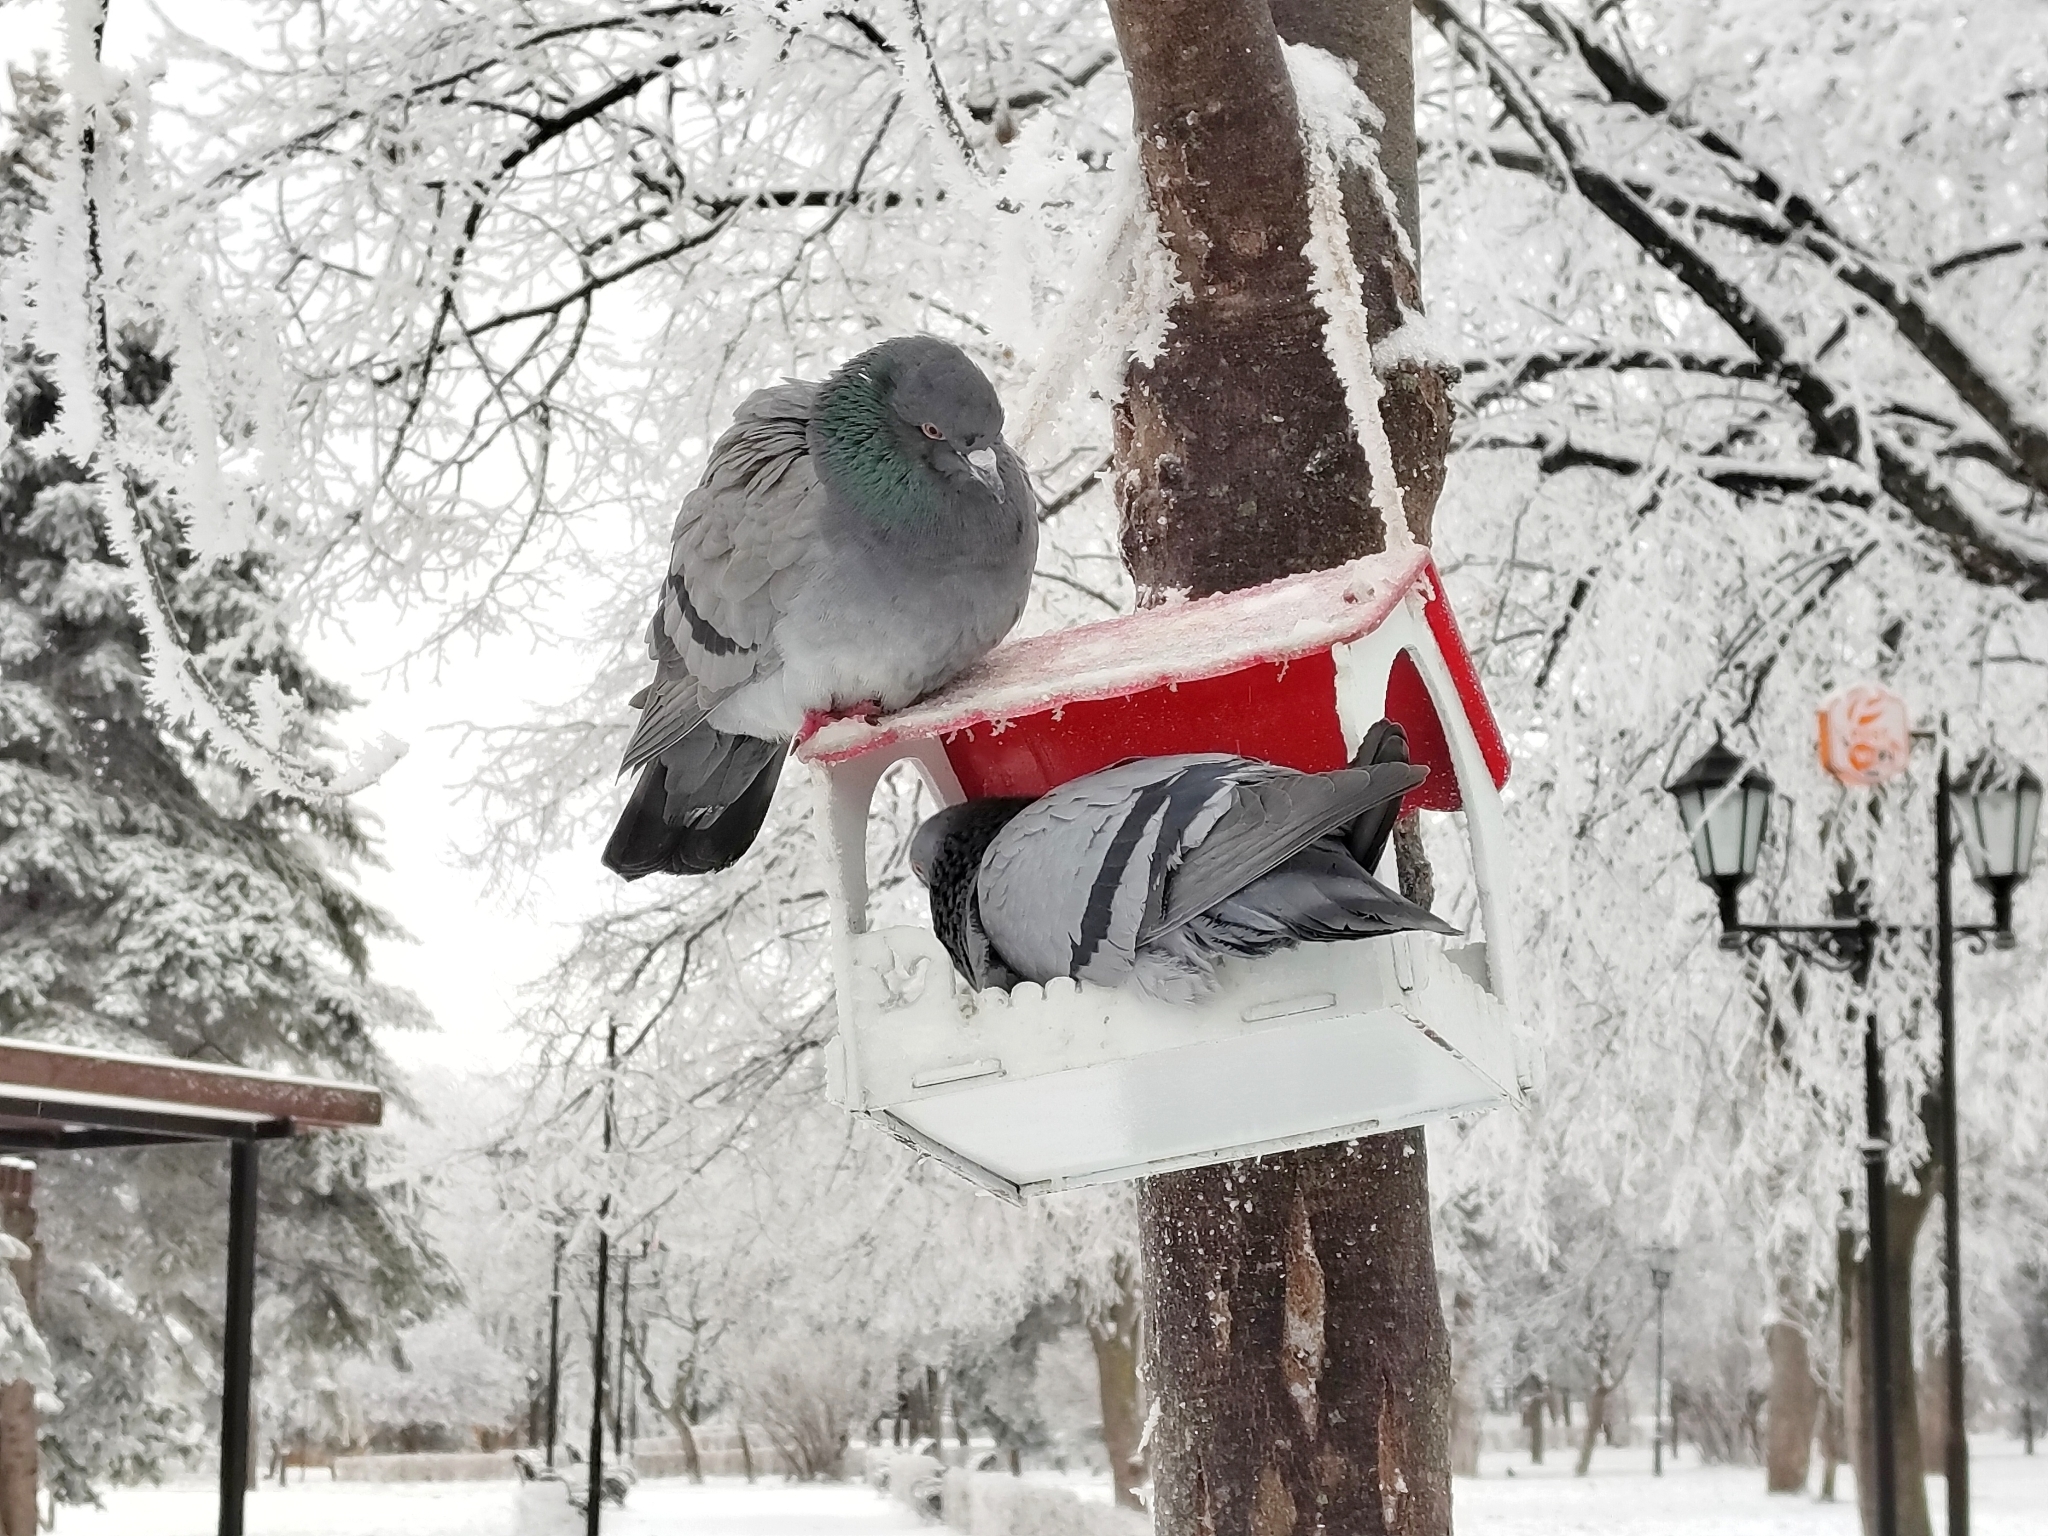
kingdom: Animalia
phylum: Chordata
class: Aves
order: Columbiformes
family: Columbidae
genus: Columba
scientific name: Columba livia
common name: Rock pigeon
